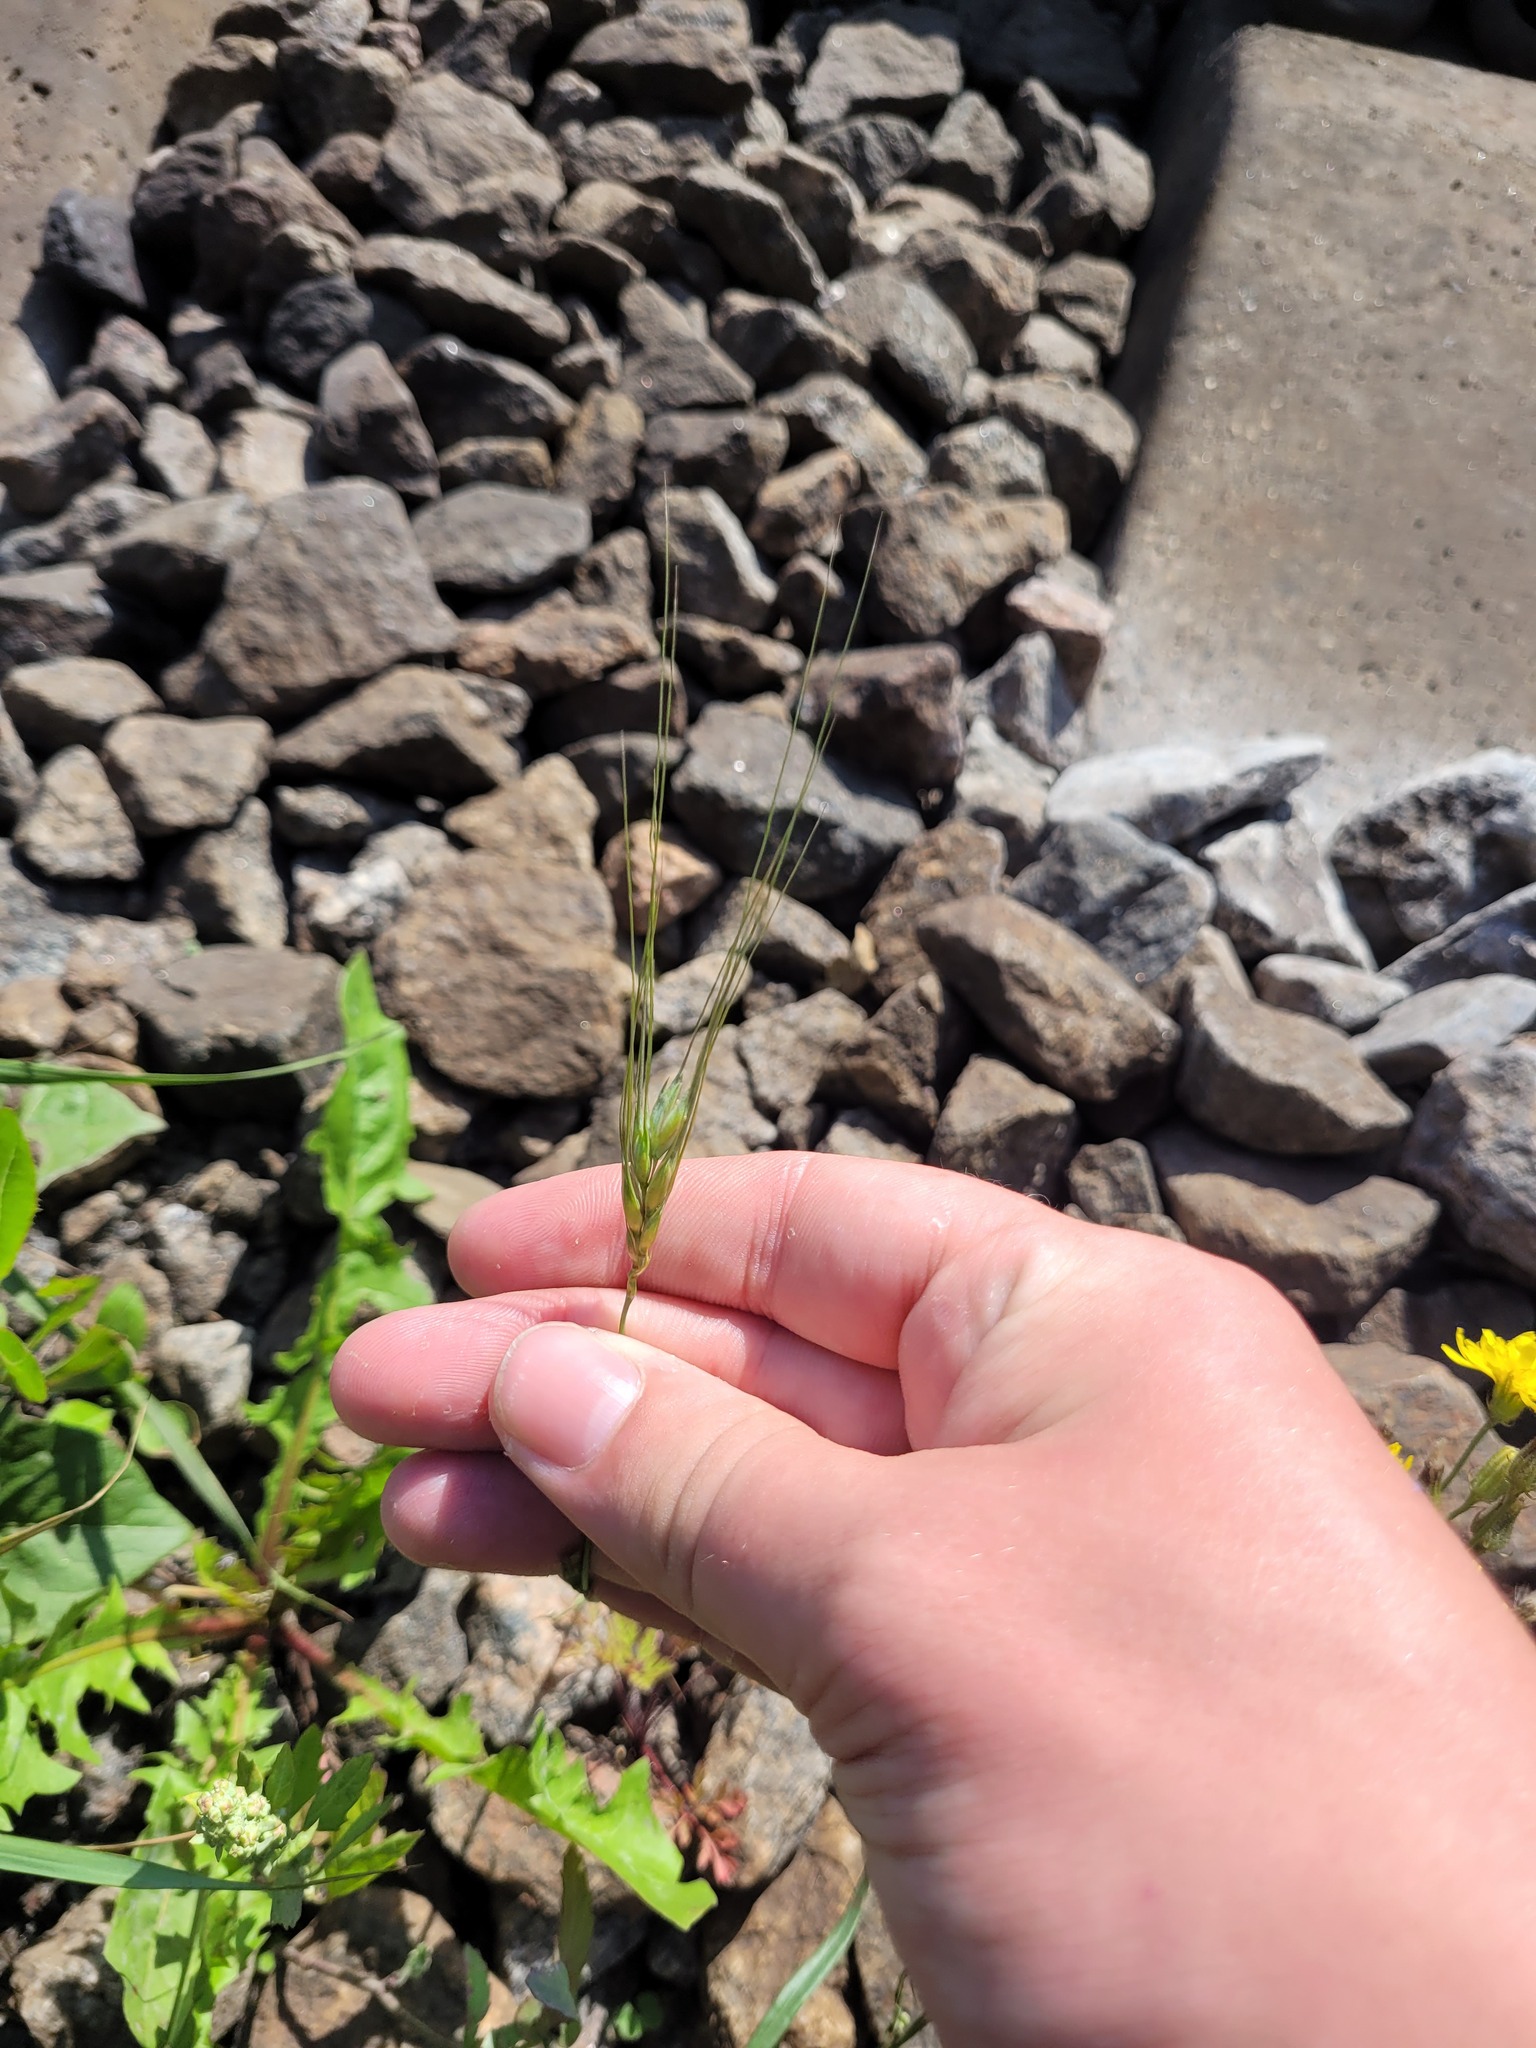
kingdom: Plantae
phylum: Tracheophyta
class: Liliopsida
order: Poales
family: Poaceae
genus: Triticum
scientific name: Triticum aestivum
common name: Common wheat
